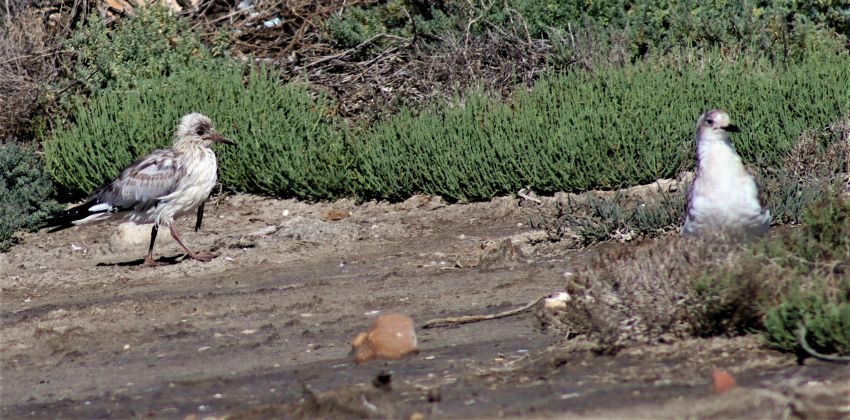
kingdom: Animalia
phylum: Chordata
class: Aves
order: Charadriiformes
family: Laridae
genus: Chroicocephalus
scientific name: Chroicocephalus cirrocephalus
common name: Grey-headed gull
